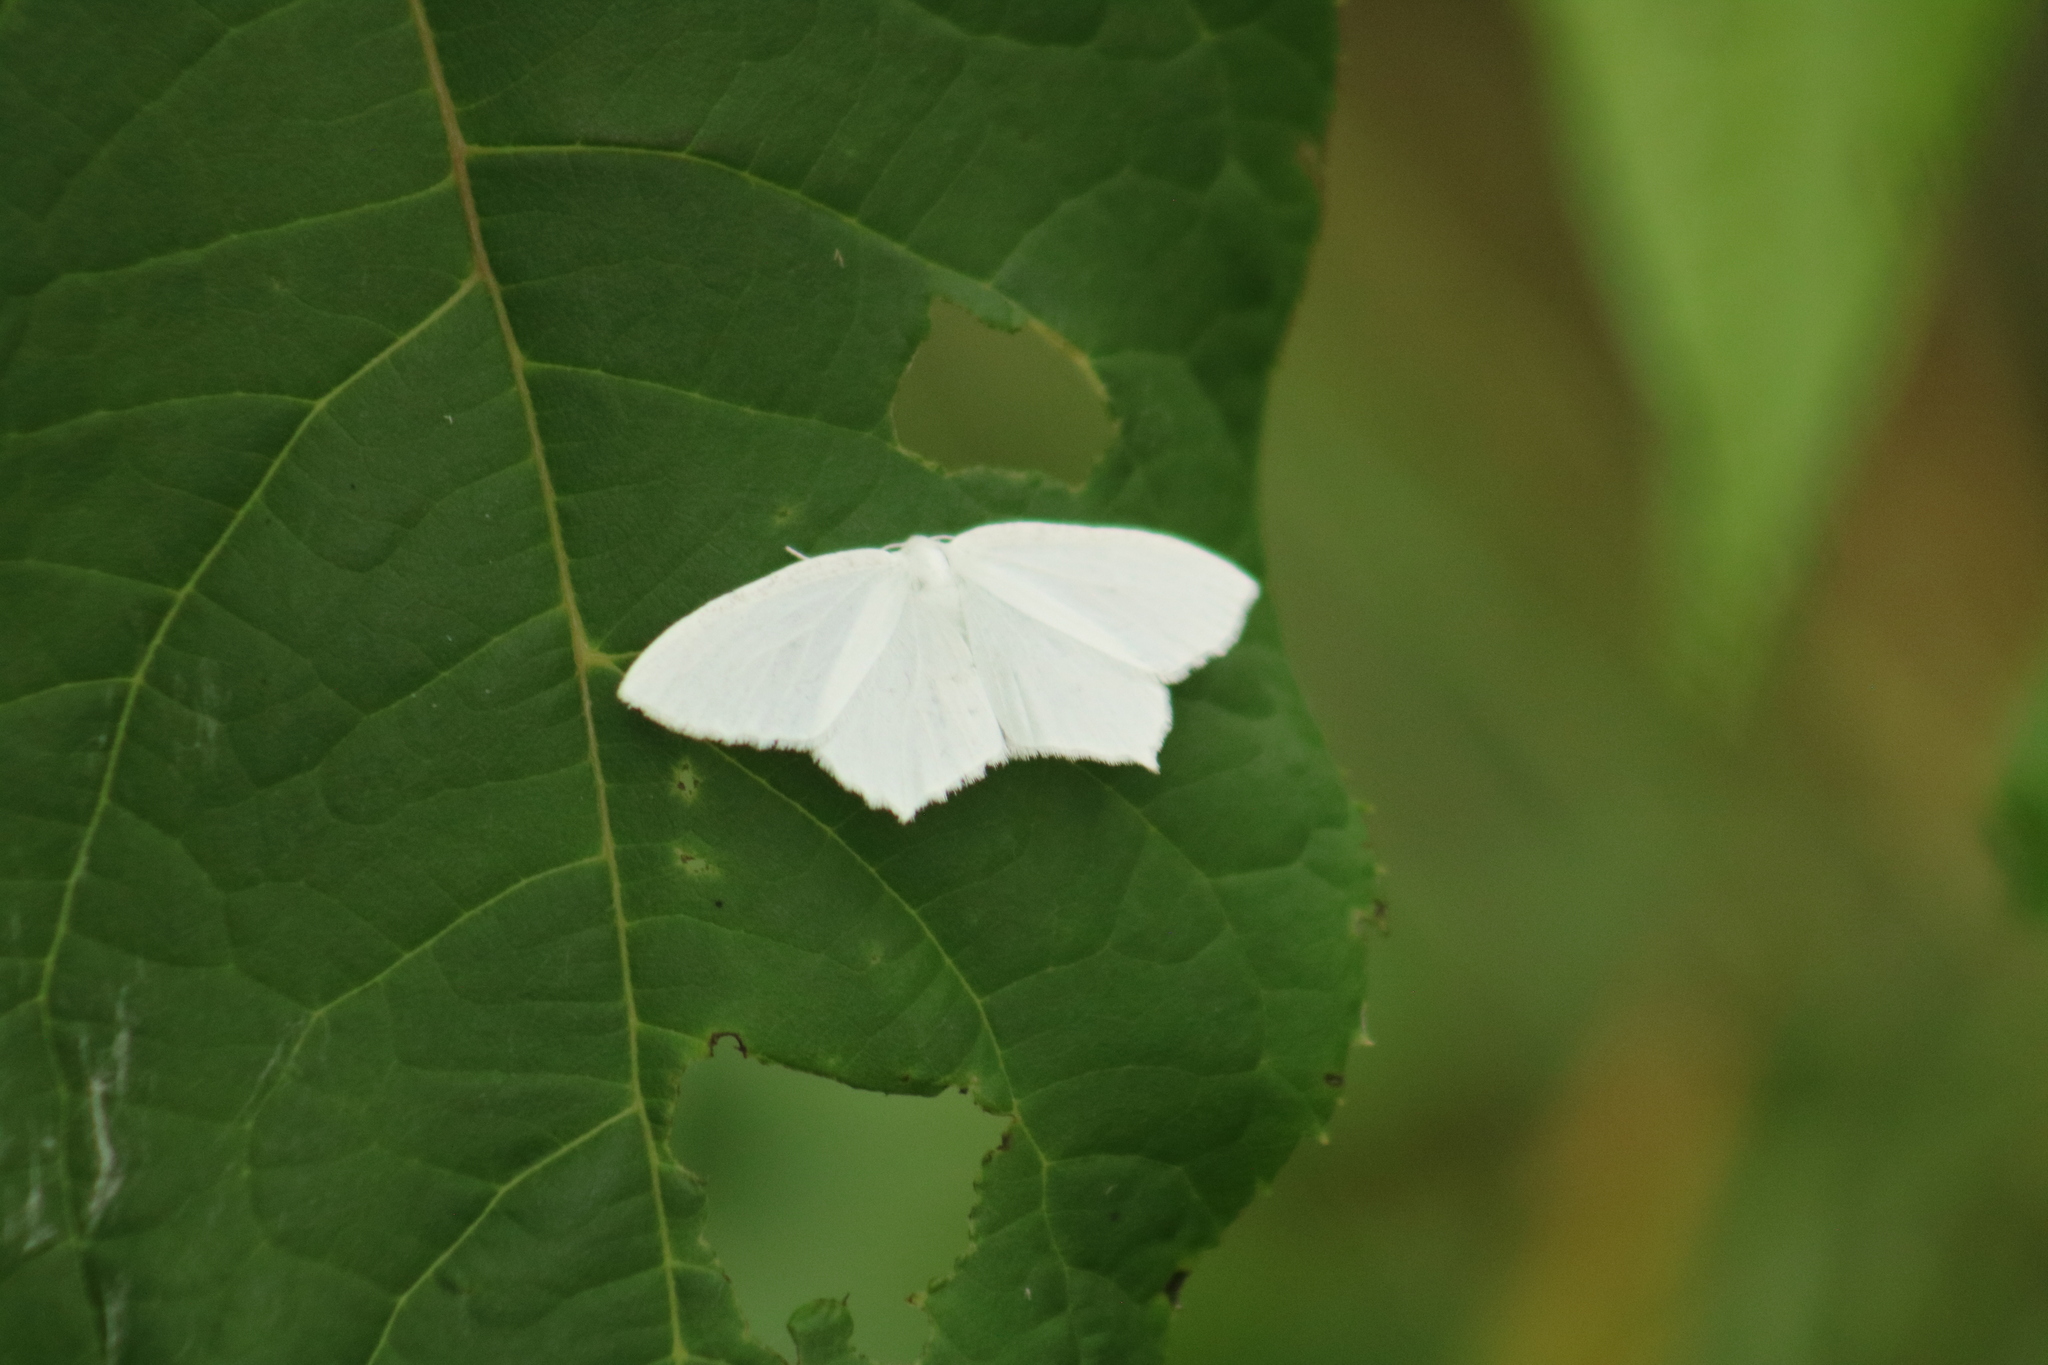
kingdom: Animalia
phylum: Arthropoda
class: Insecta
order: Lepidoptera
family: Geometridae
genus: Eugonobapta
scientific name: Eugonobapta nivosaria
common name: Snowy geometer
